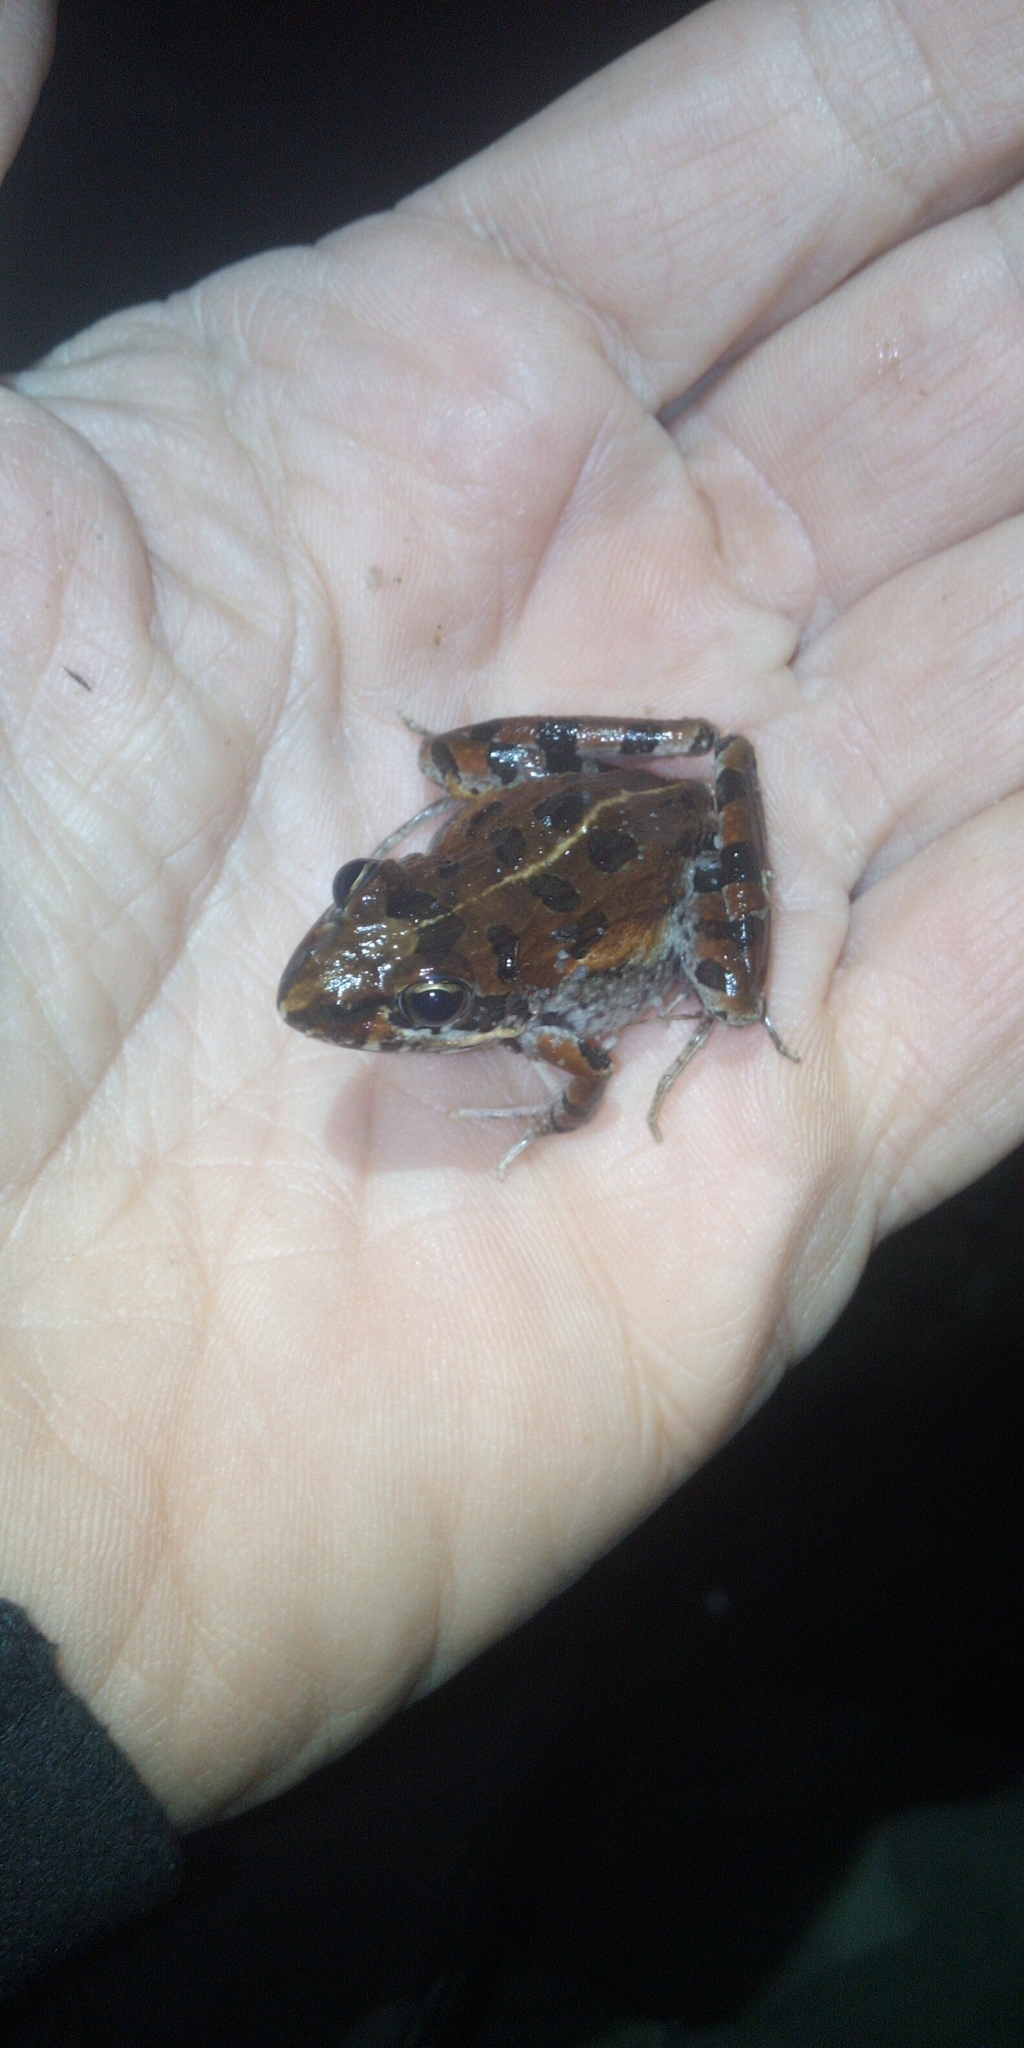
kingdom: Animalia
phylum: Chordata
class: Amphibia
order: Anura
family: Pyxicephalidae
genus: Strongylopus
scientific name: Strongylopus grayii
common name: Gray's stream frog
